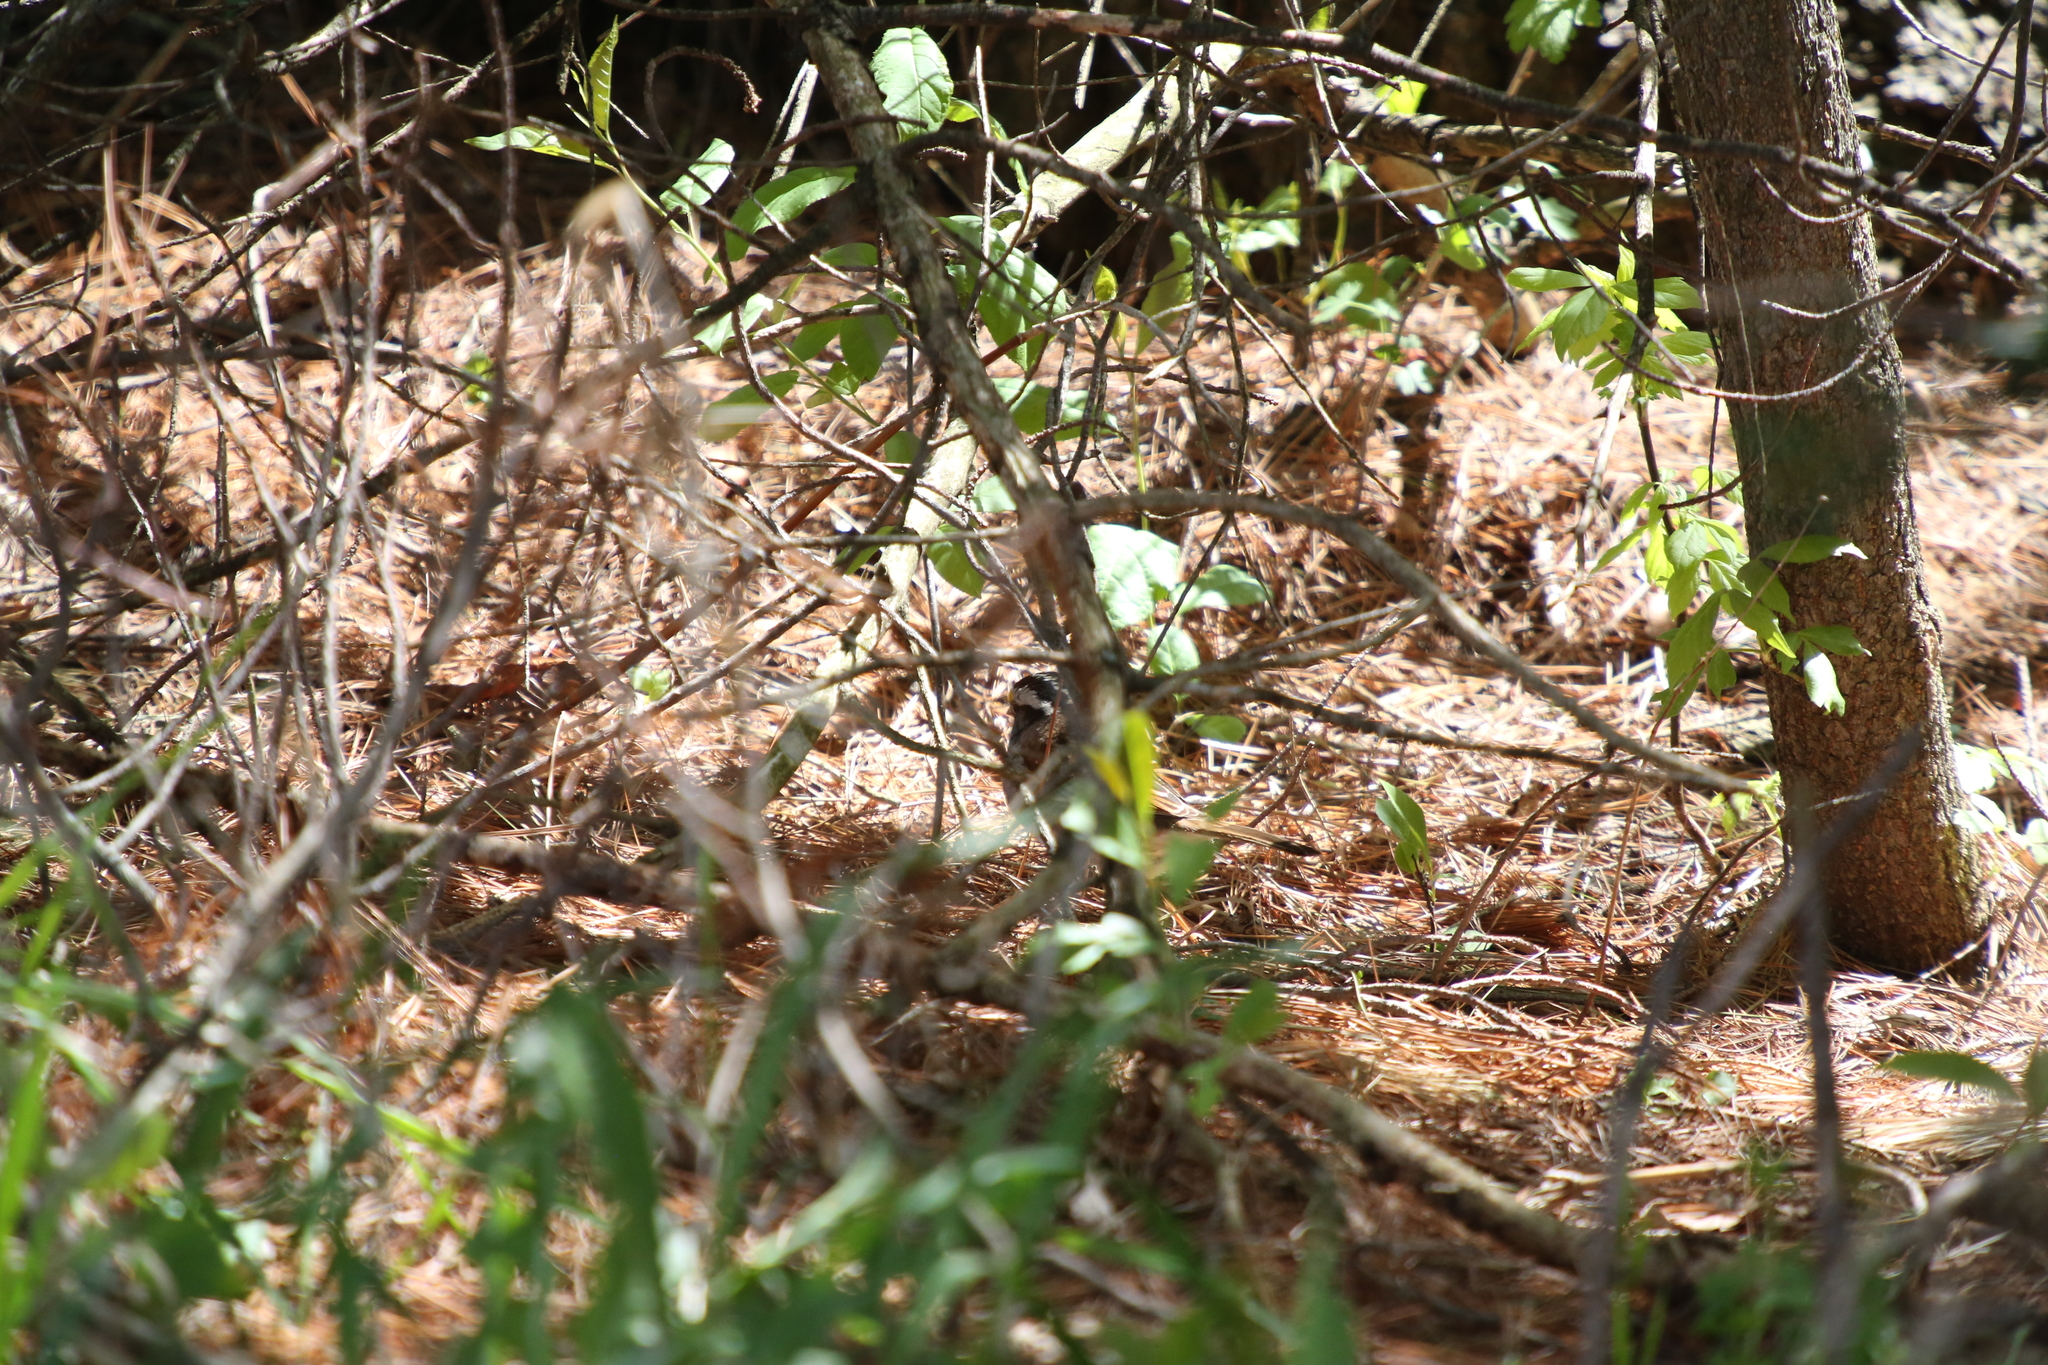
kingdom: Animalia
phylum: Chordata
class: Aves
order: Passeriformes
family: Passerellidae
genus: Zonotrichia
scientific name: Zonotrichia albicollis
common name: White-throated sparrow
